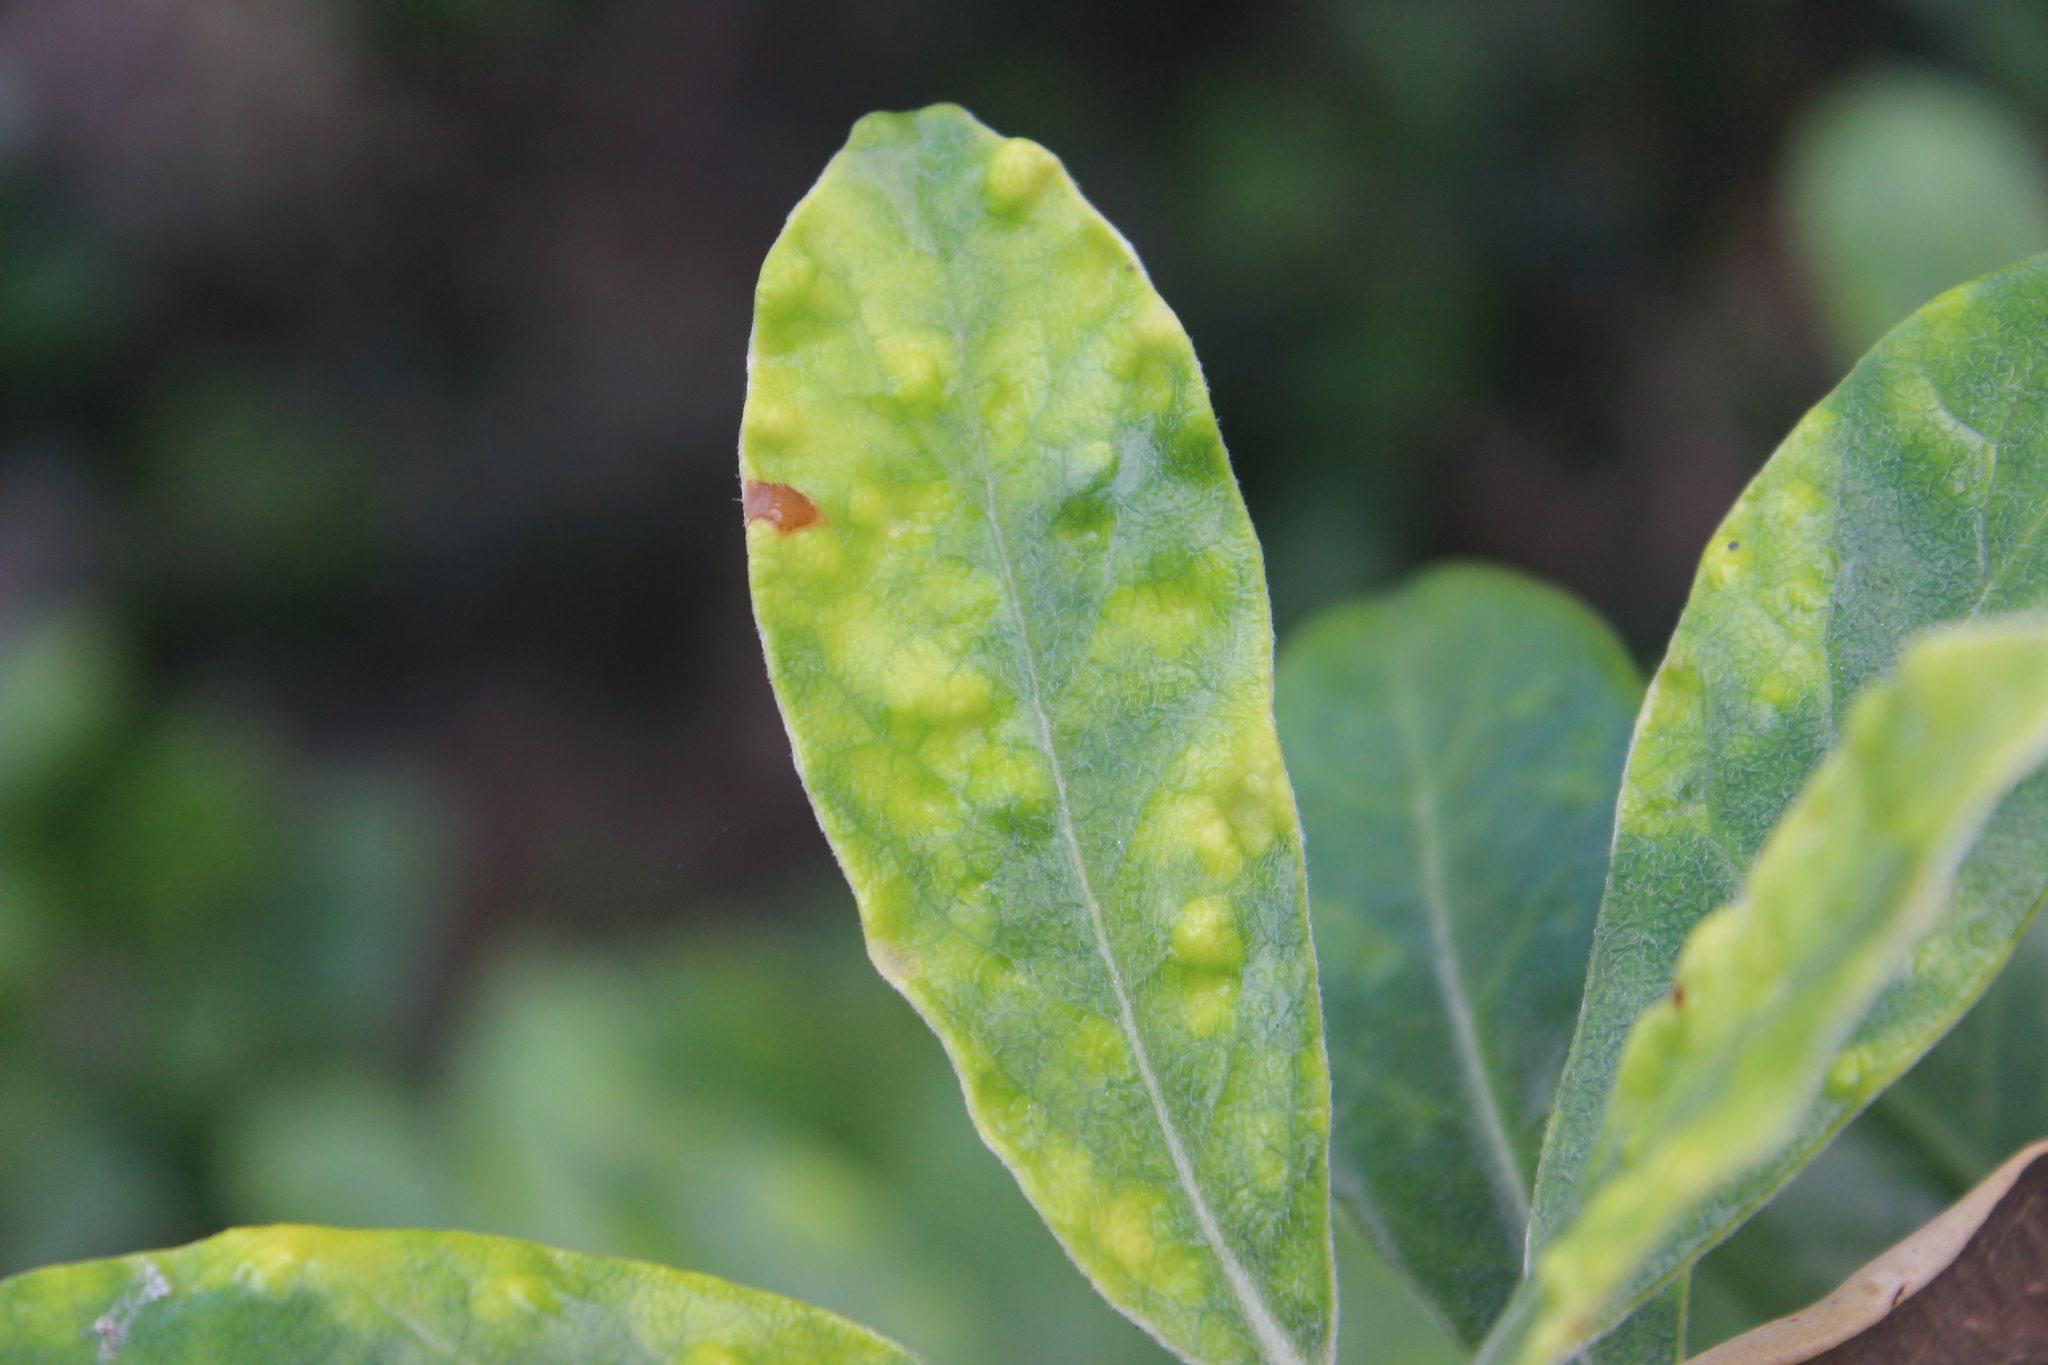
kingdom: Animalia
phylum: Arthropoda
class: Insecta
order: Hemiptera
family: Triozidae
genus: Powellia
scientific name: Powellia vitreoradiata
